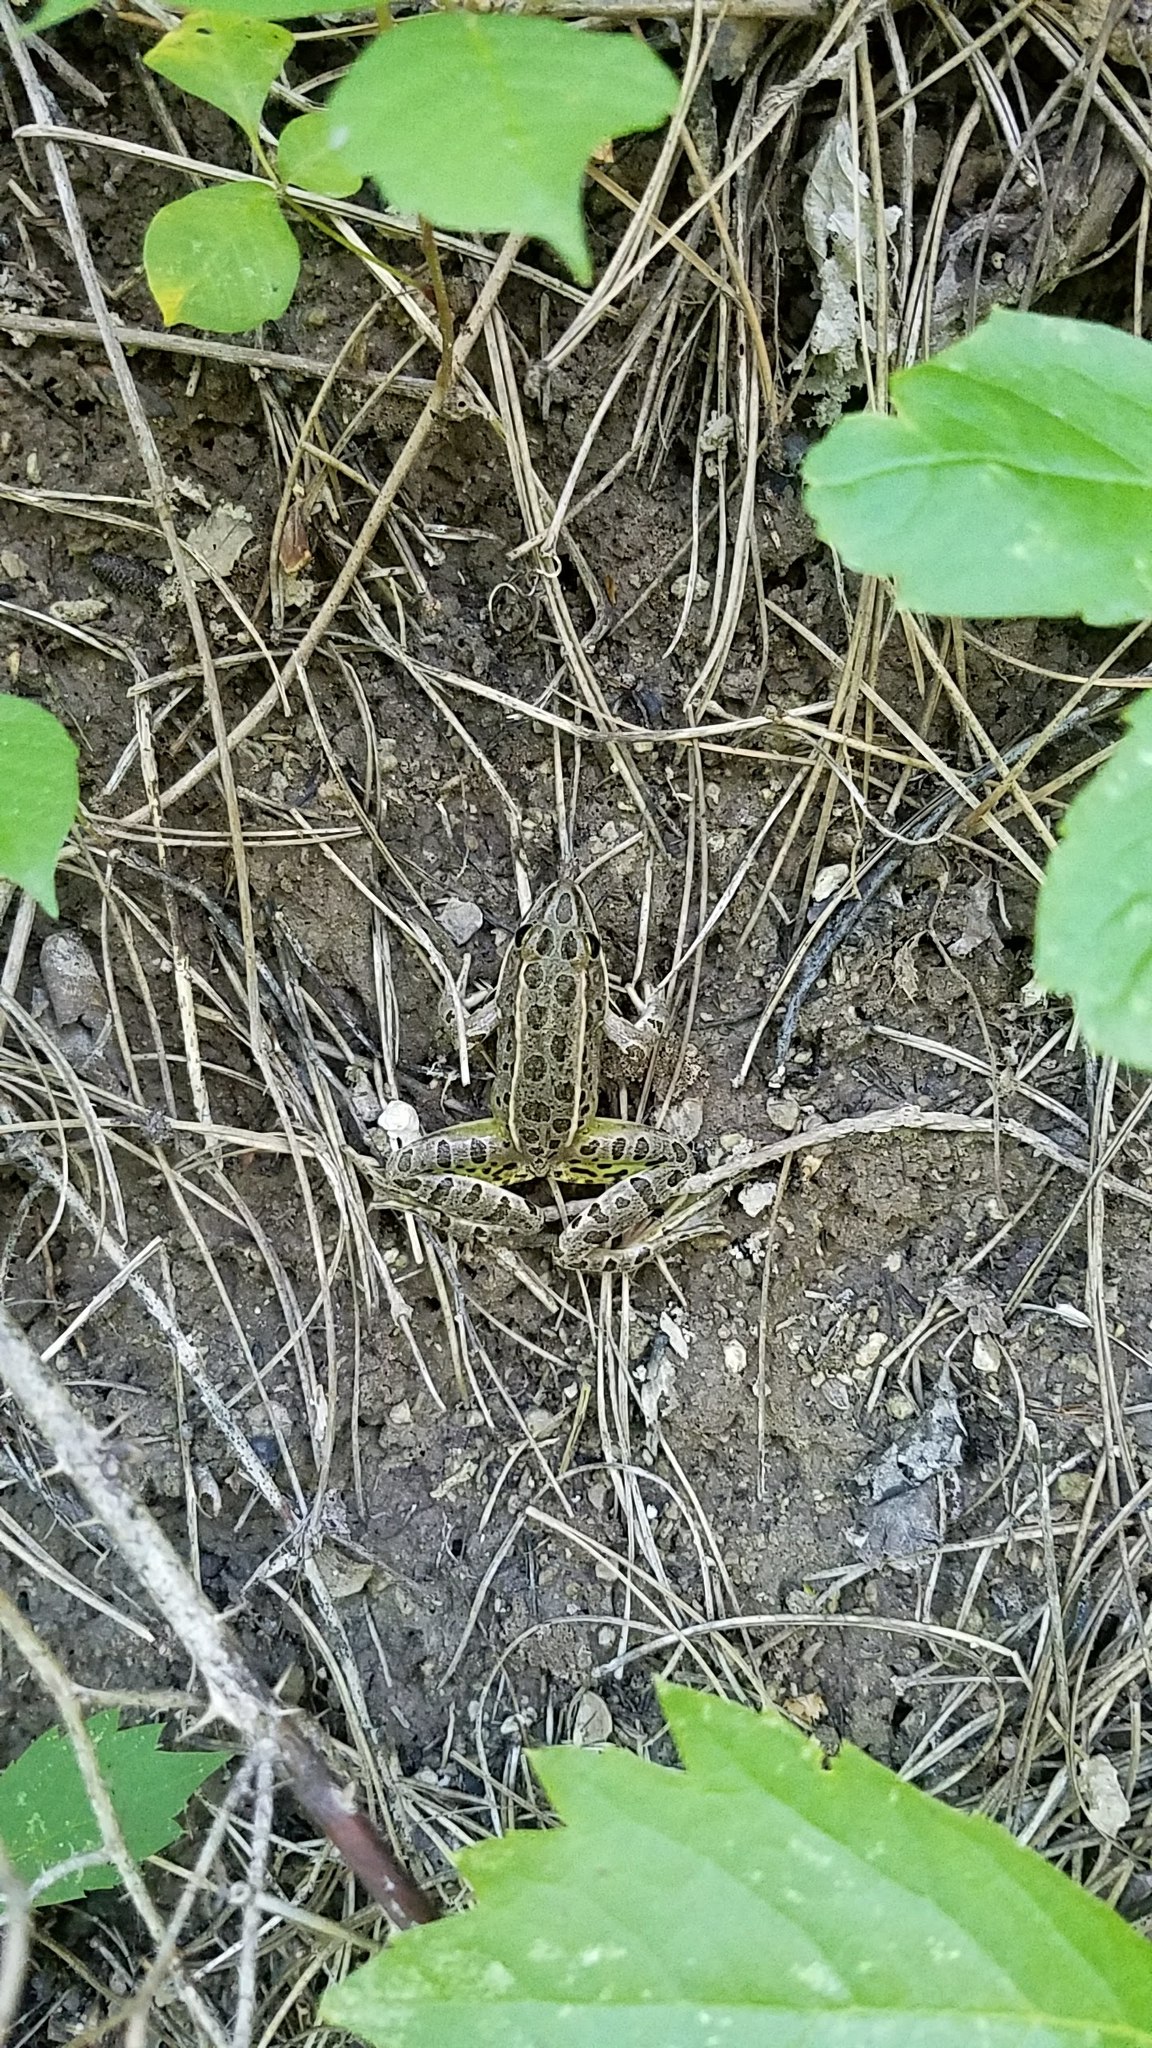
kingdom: Animalia
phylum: Chordata
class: Amphibia
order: Anura
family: Ranidae
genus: Lithobates
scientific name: Lithobates pipiens
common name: Northern leopard frog
